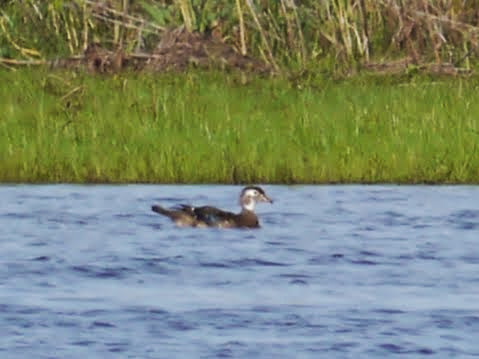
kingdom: Animalia
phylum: Chordata
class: Aves
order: Anseriformes
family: Anatidae
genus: Aix
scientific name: Aix sponsa
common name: Wood duck
